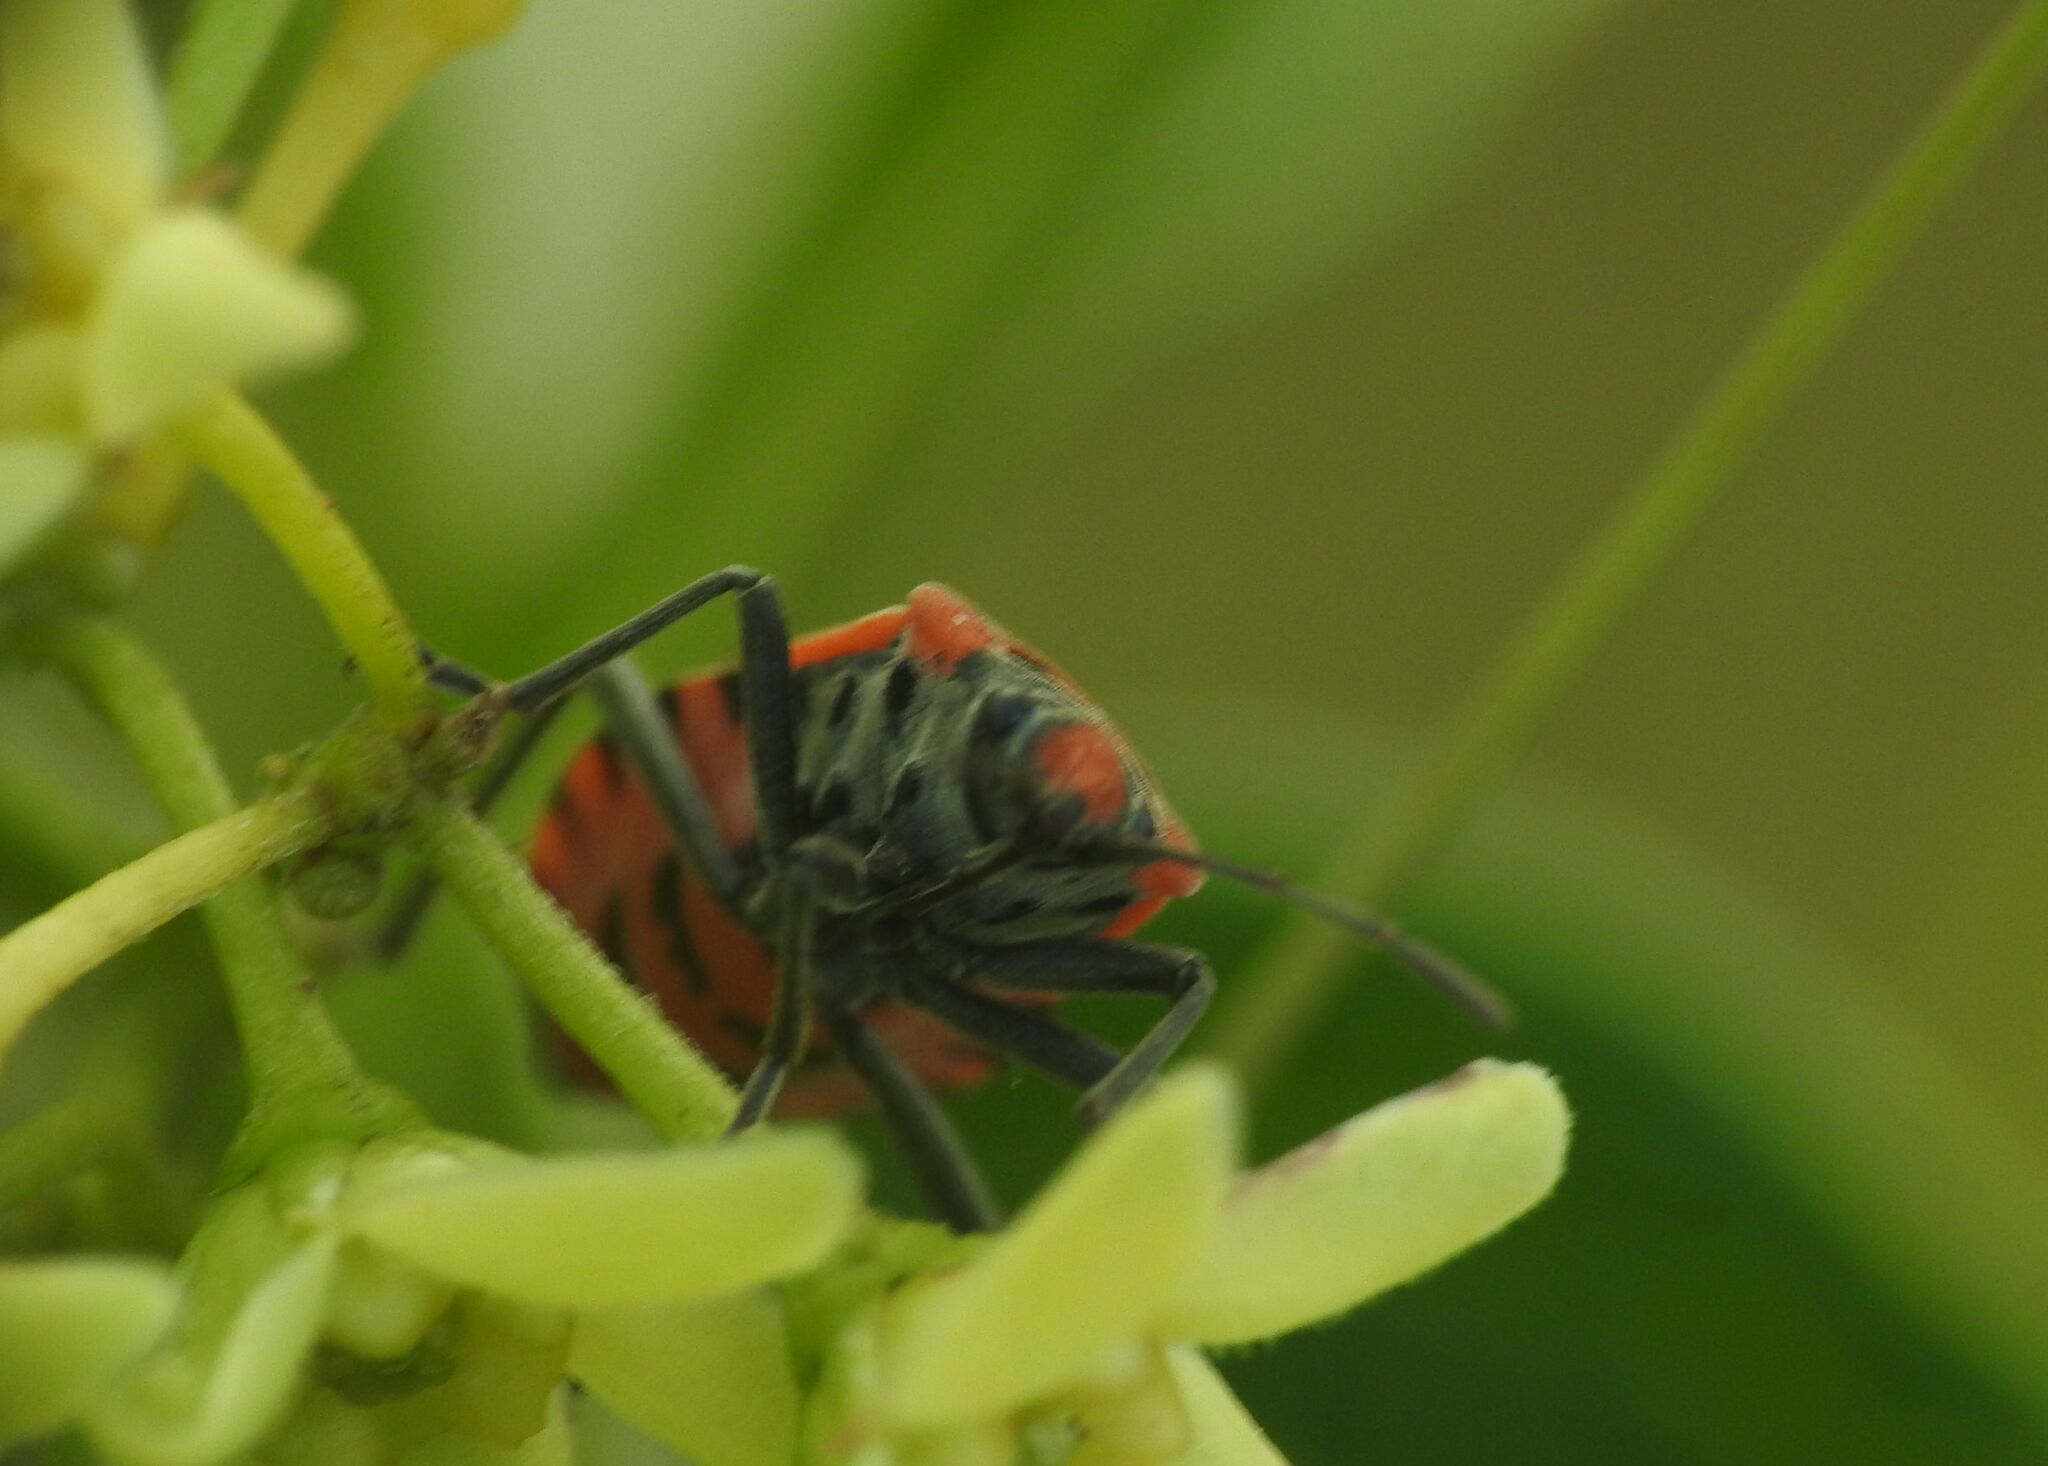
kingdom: Animalia
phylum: Arthropoda
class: Insecta
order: Hemiptera
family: Lygaeidae
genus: Lygaeus
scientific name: Lygaeus equestris
